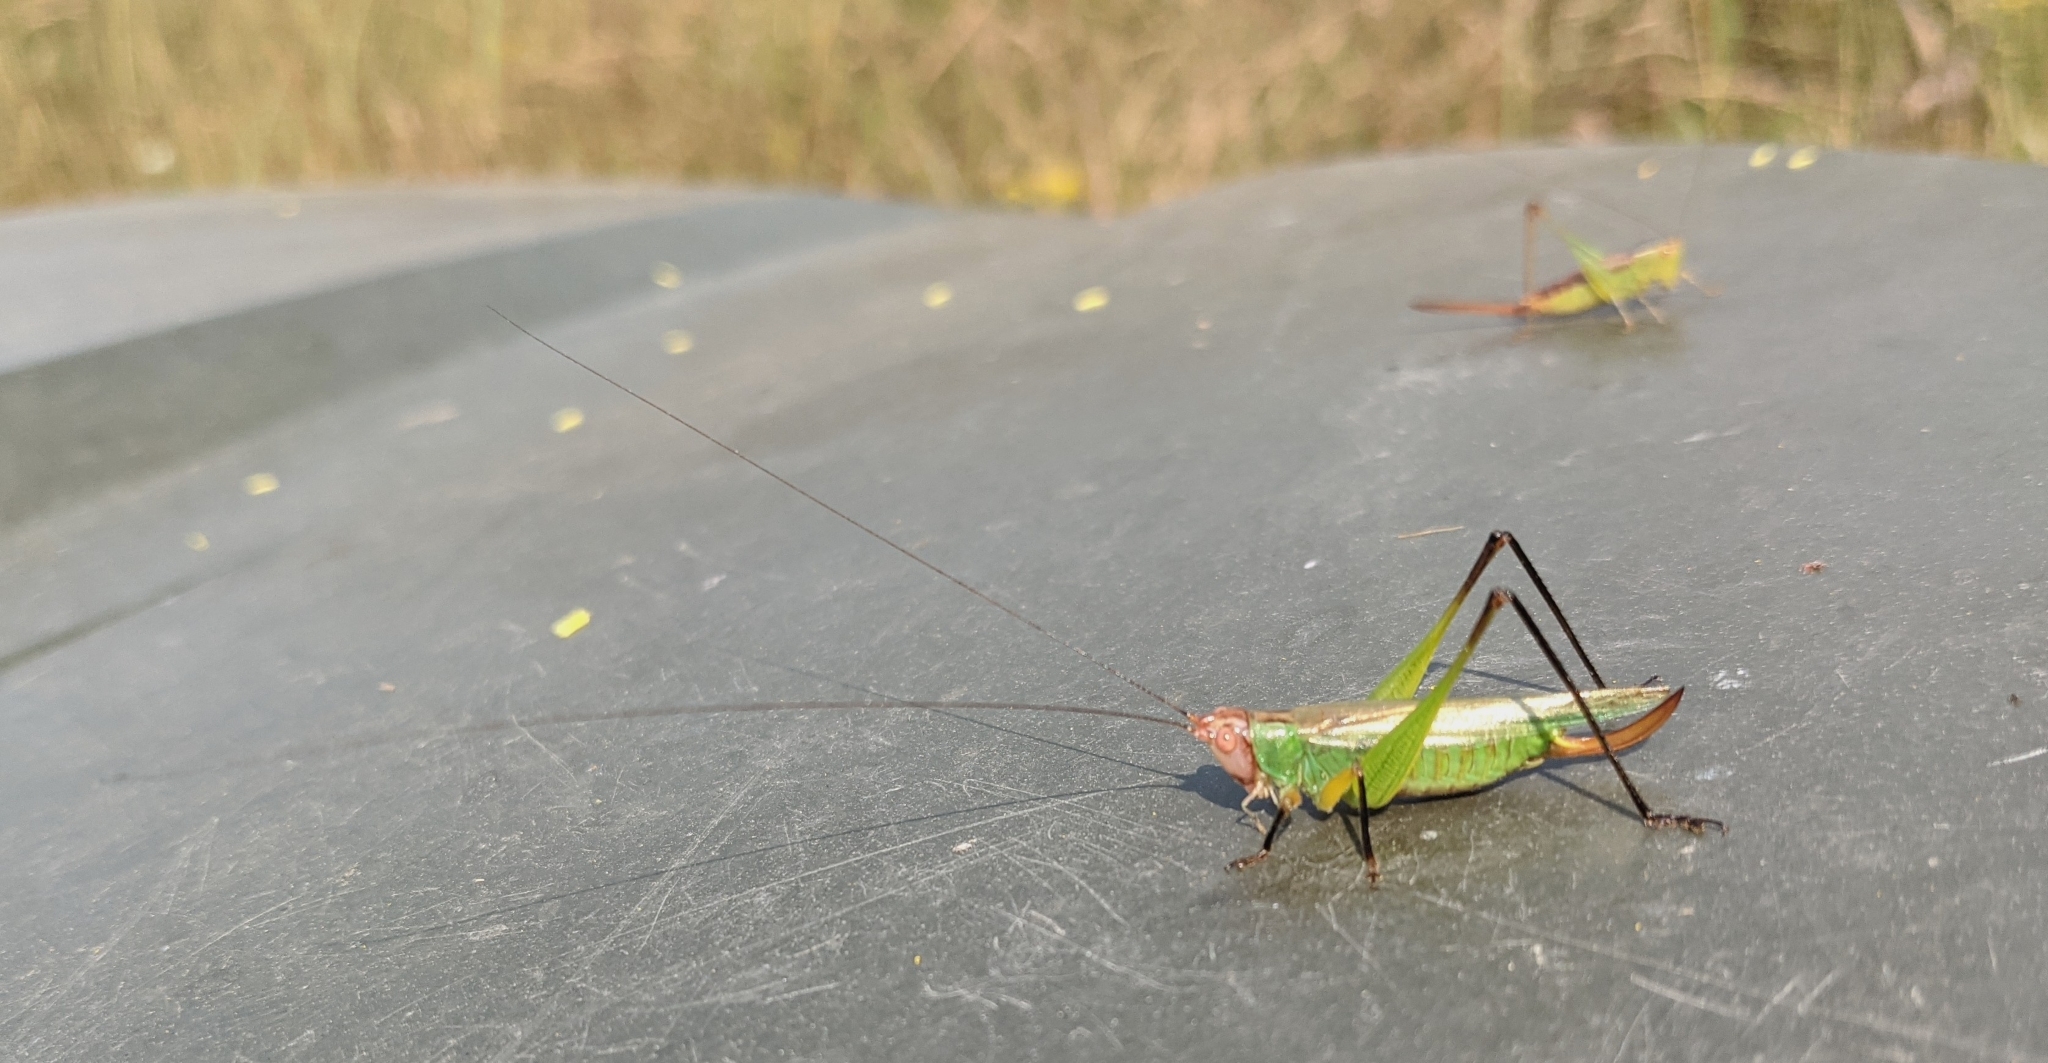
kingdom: Animalia
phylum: Arthropoda
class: Insecta
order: Orthoptera
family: Tettigoniidae
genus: Orchelimum
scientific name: Orchelimum nigripes
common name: Black-legged meadow katydid
